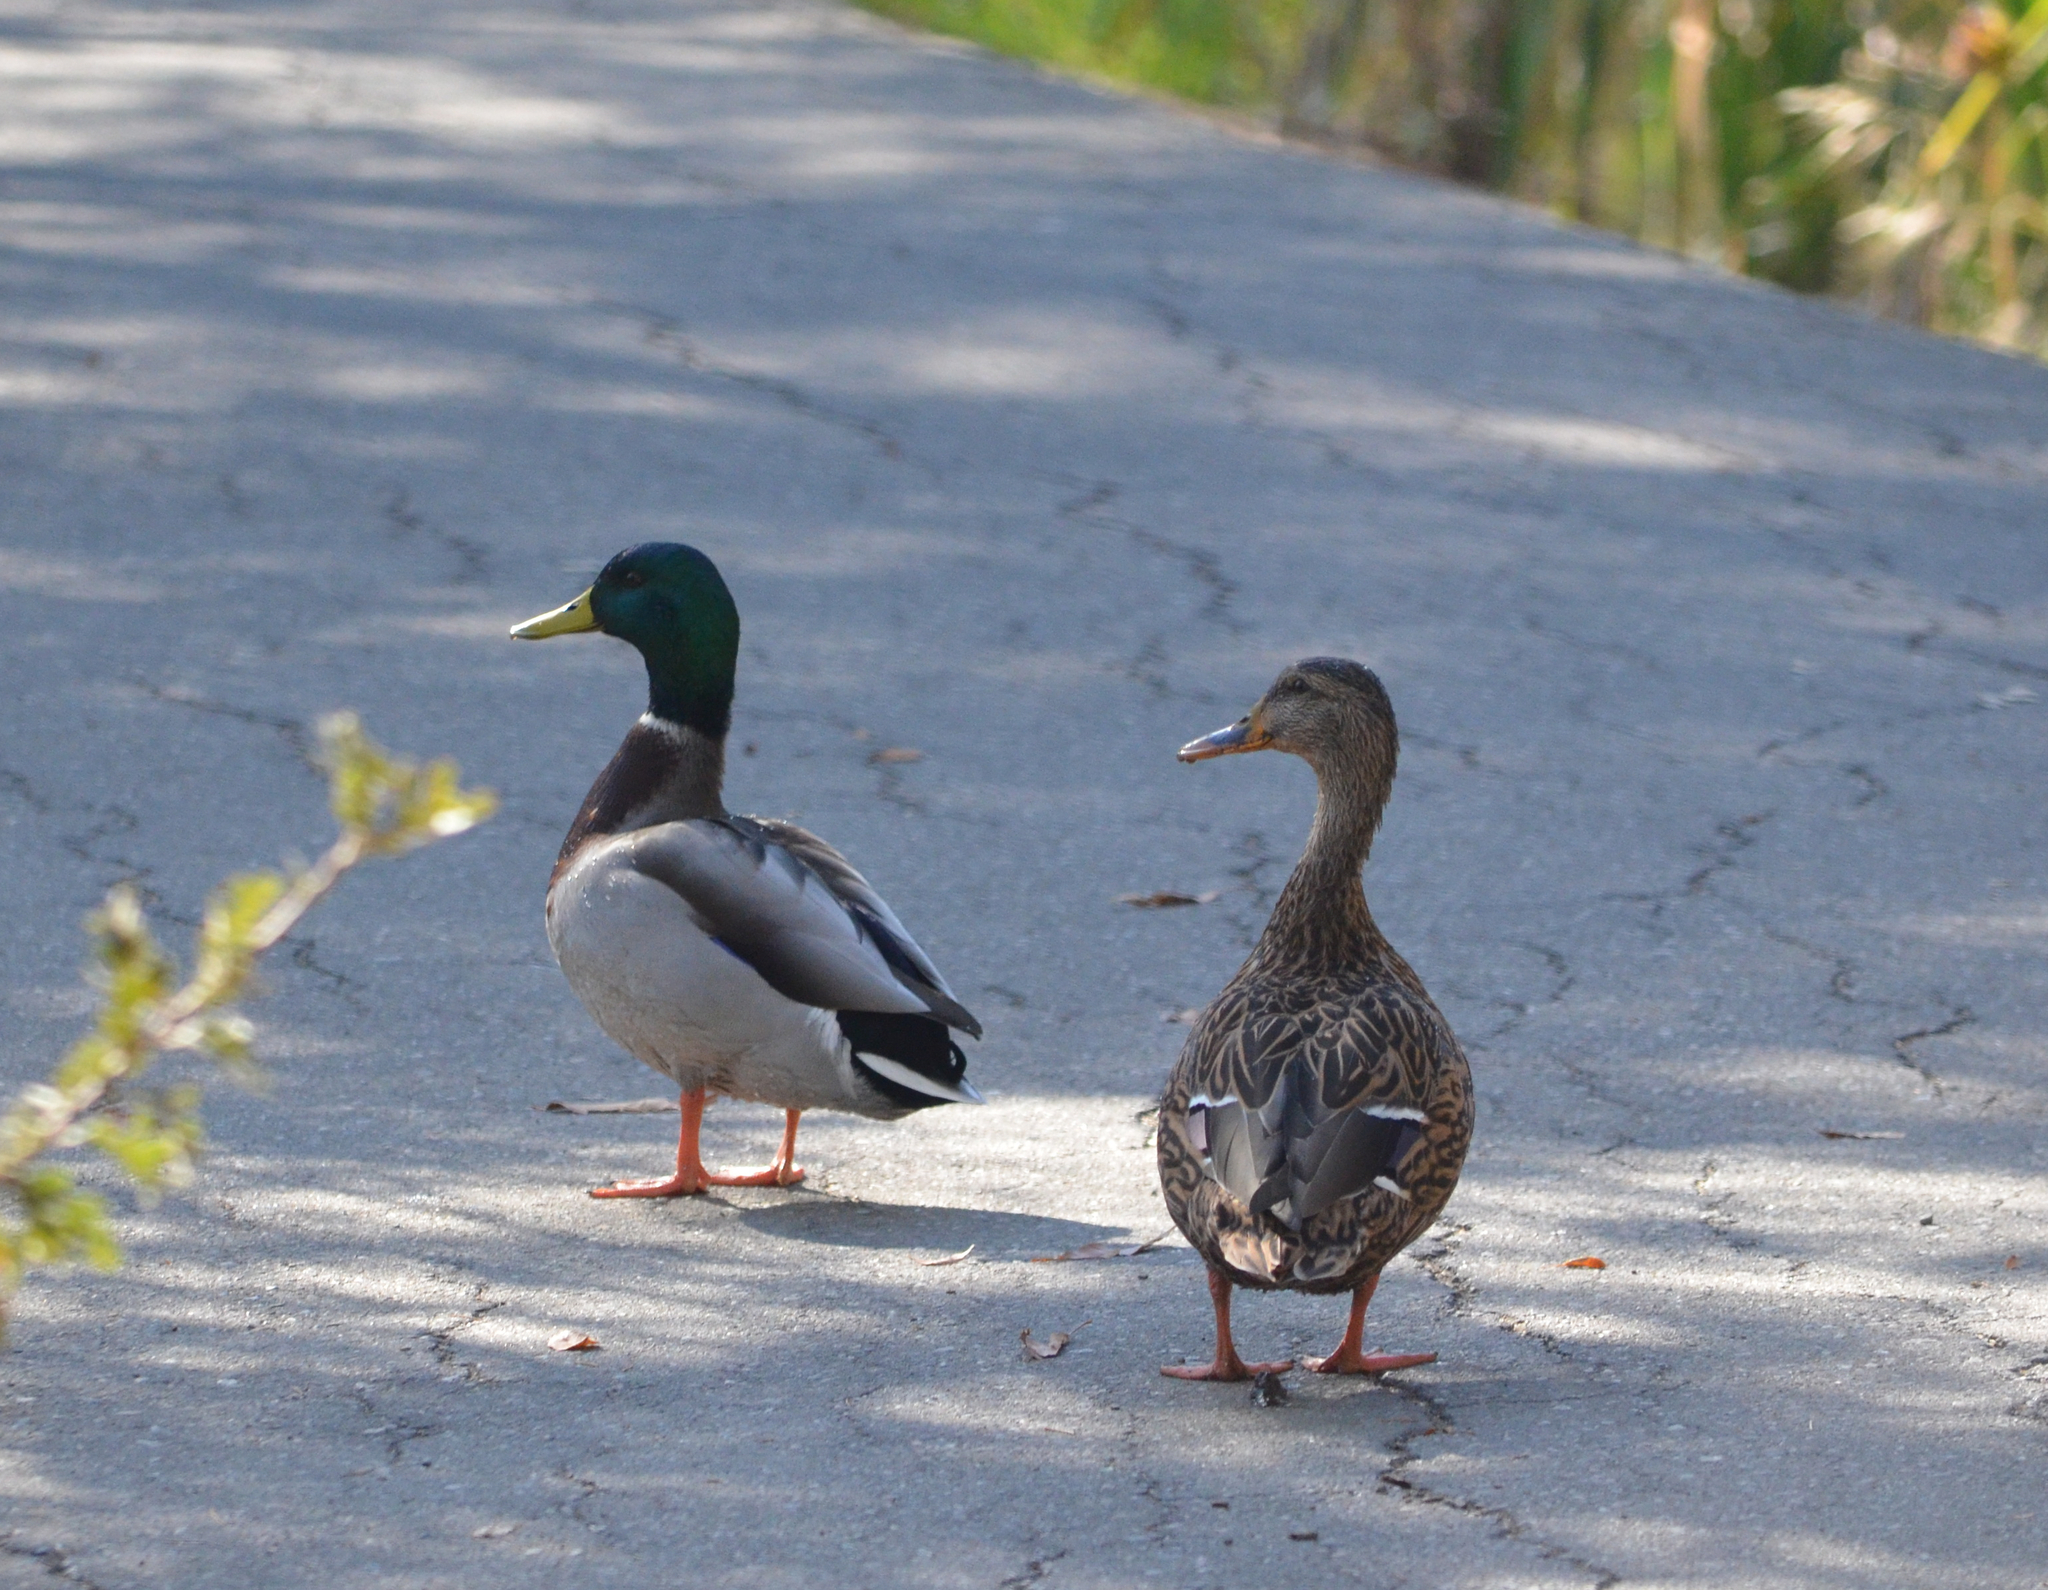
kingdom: Animalia
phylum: Chordata
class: Aves
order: Anseriformes
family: Anatidae
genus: Anas
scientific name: Anas platyrhynchos
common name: Mallard
